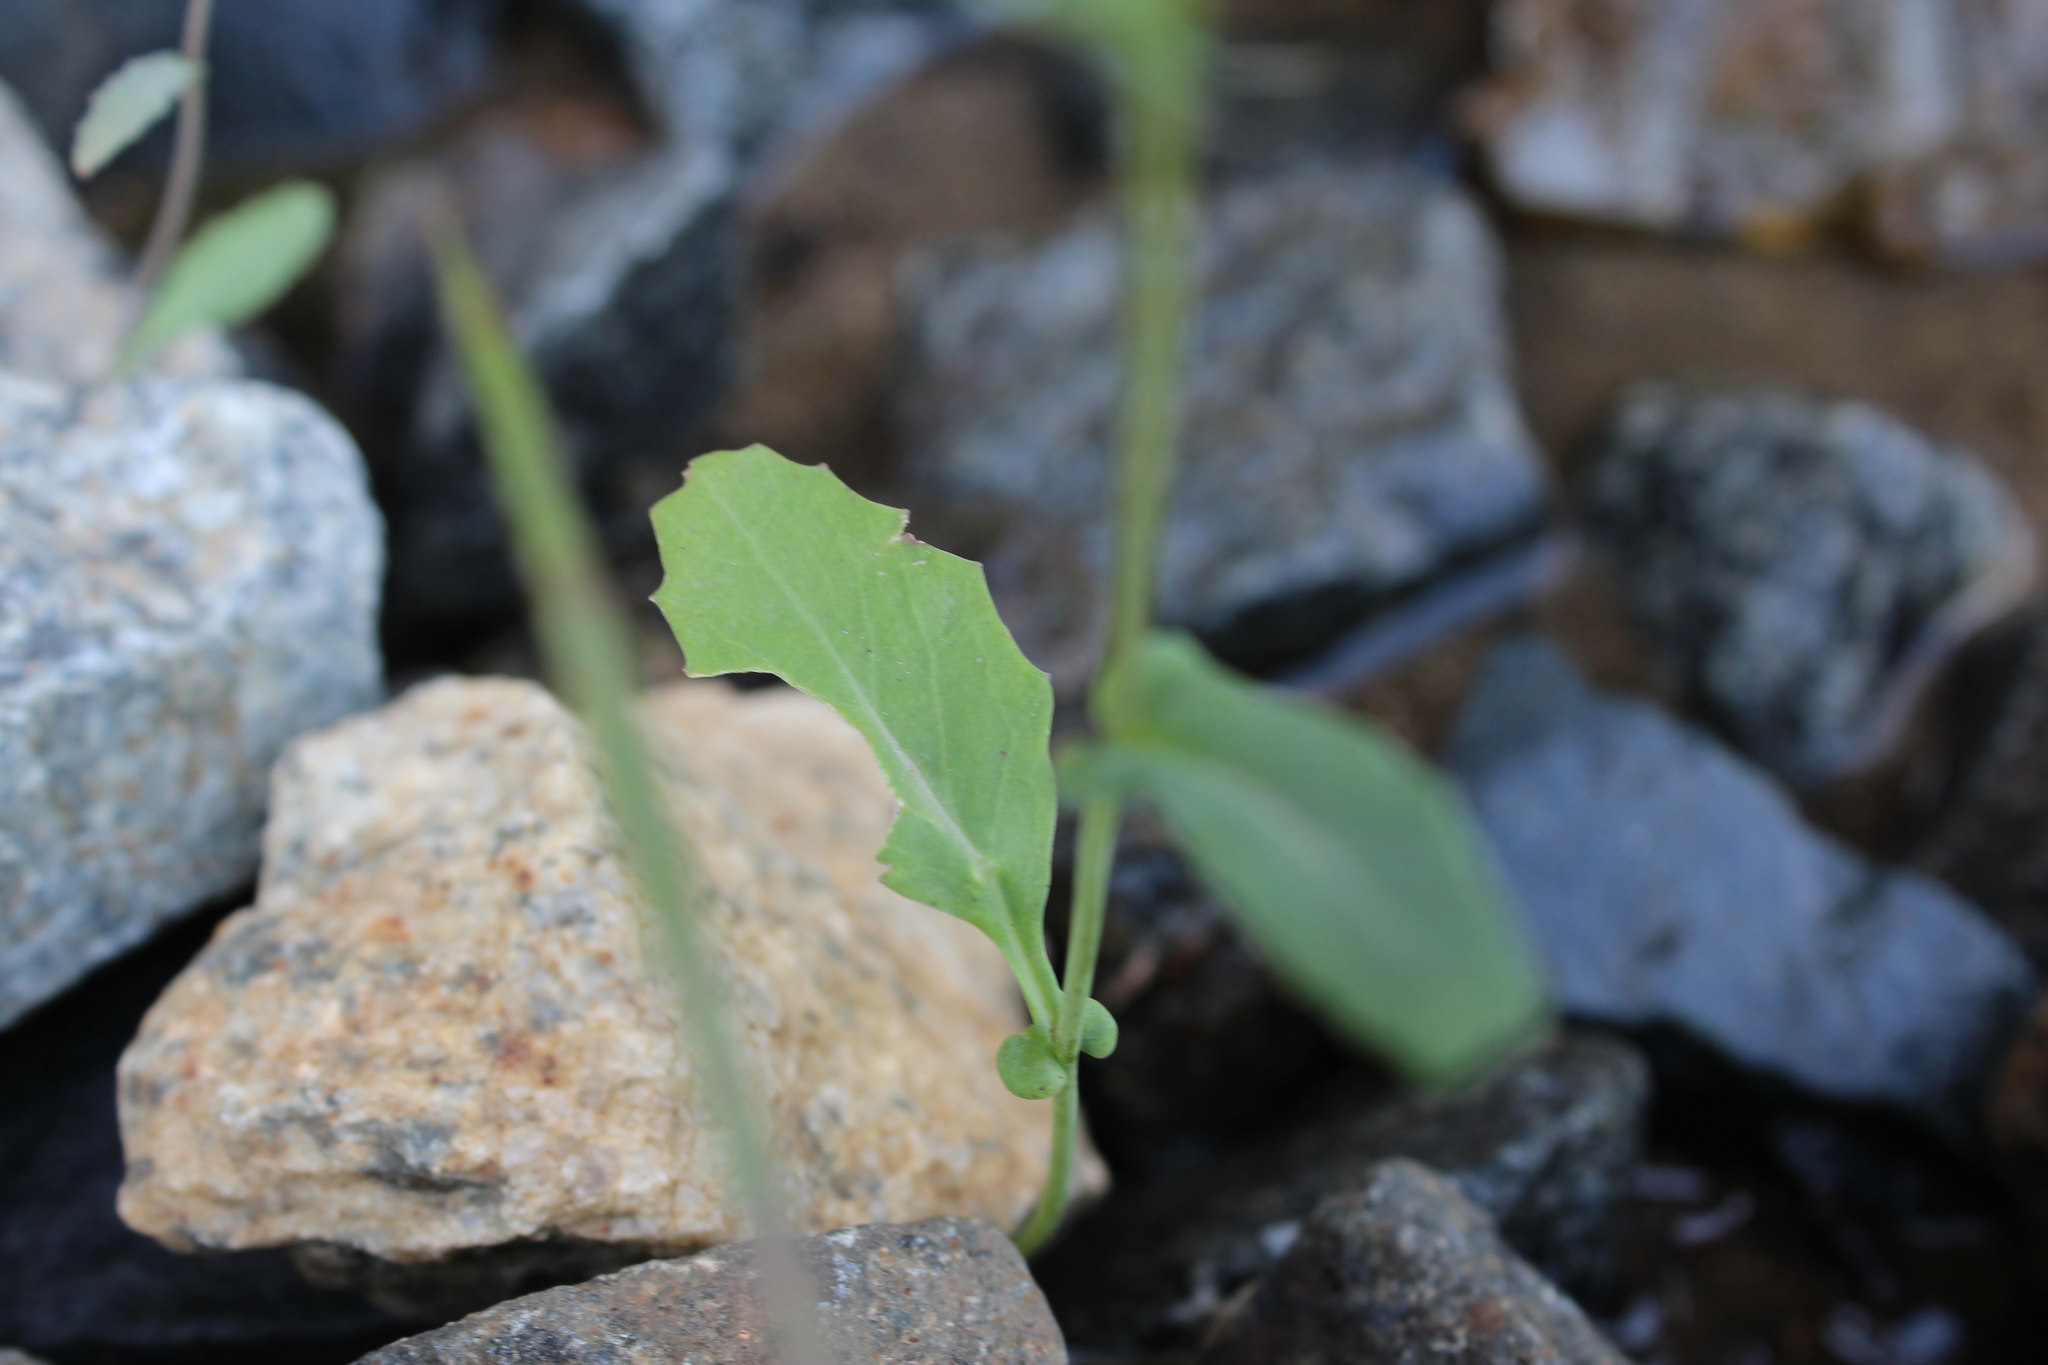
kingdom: Plantae
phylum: Tracheophyta
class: Magnoliopsida
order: Brassicales
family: Brassicaceae
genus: Brassica
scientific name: Brassica rapa
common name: Field mustard
